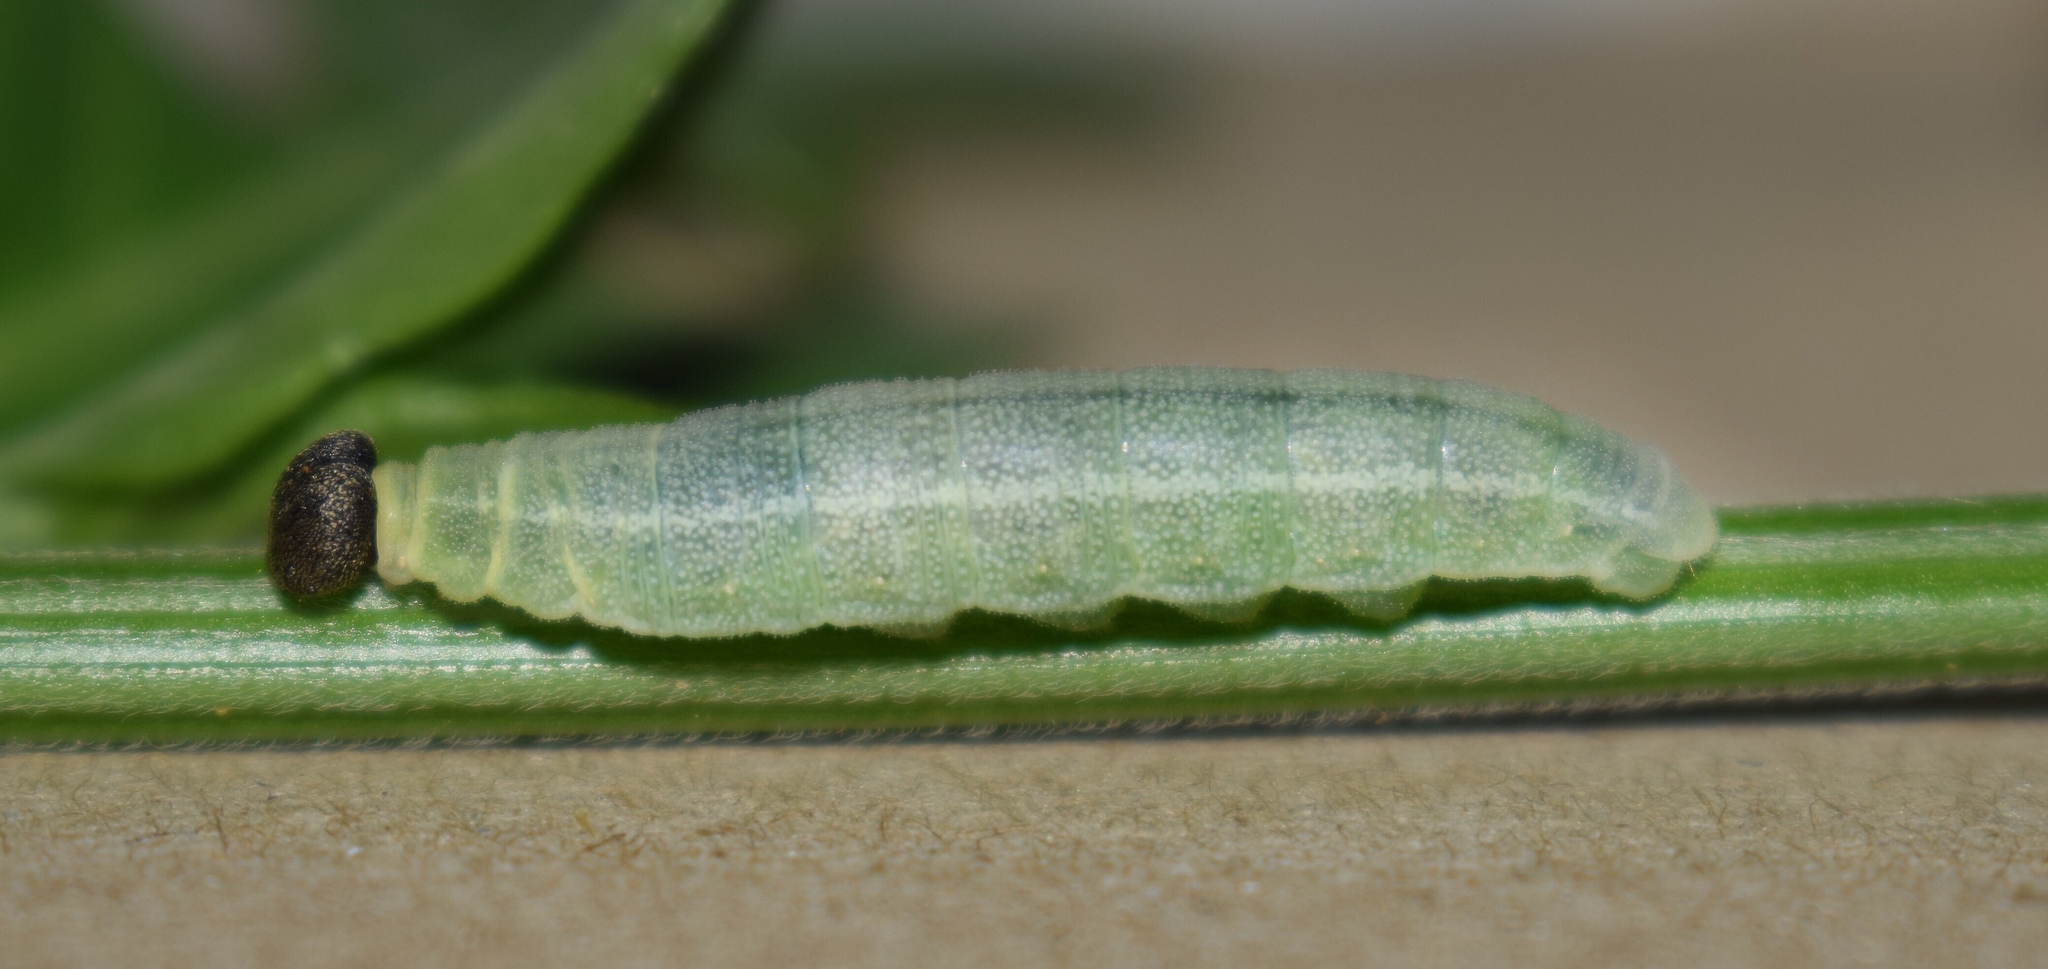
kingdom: Animalia
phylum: Arthropoda
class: Insecta
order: Lepidoptera
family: Hesperiidae
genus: Sarangesa
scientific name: Sarangesa motozi
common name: Forest elfin
